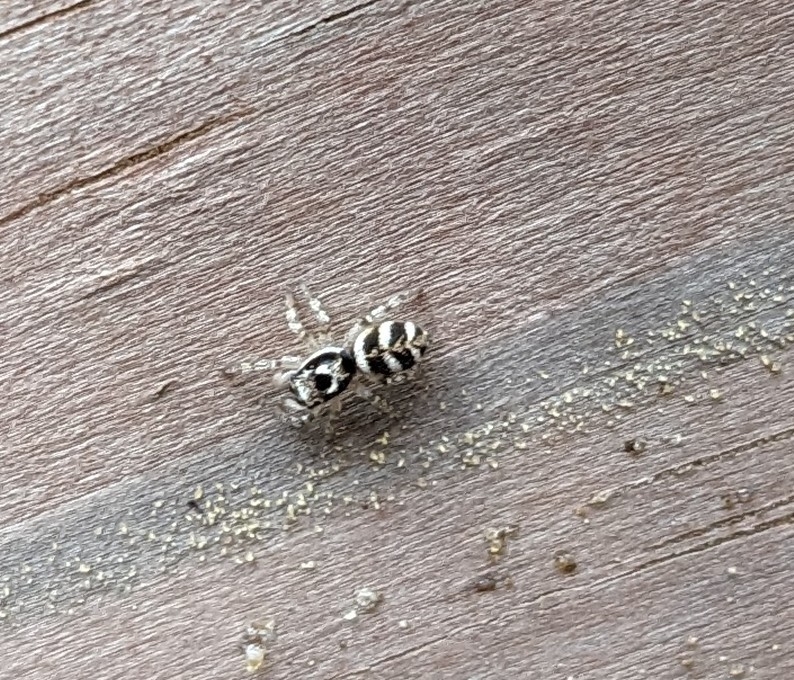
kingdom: Animalia
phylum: Arthropoda
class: Arachnida
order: Araneae
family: Salticidae
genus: Salticus
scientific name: Salticus scenicus
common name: Zebra jumper
